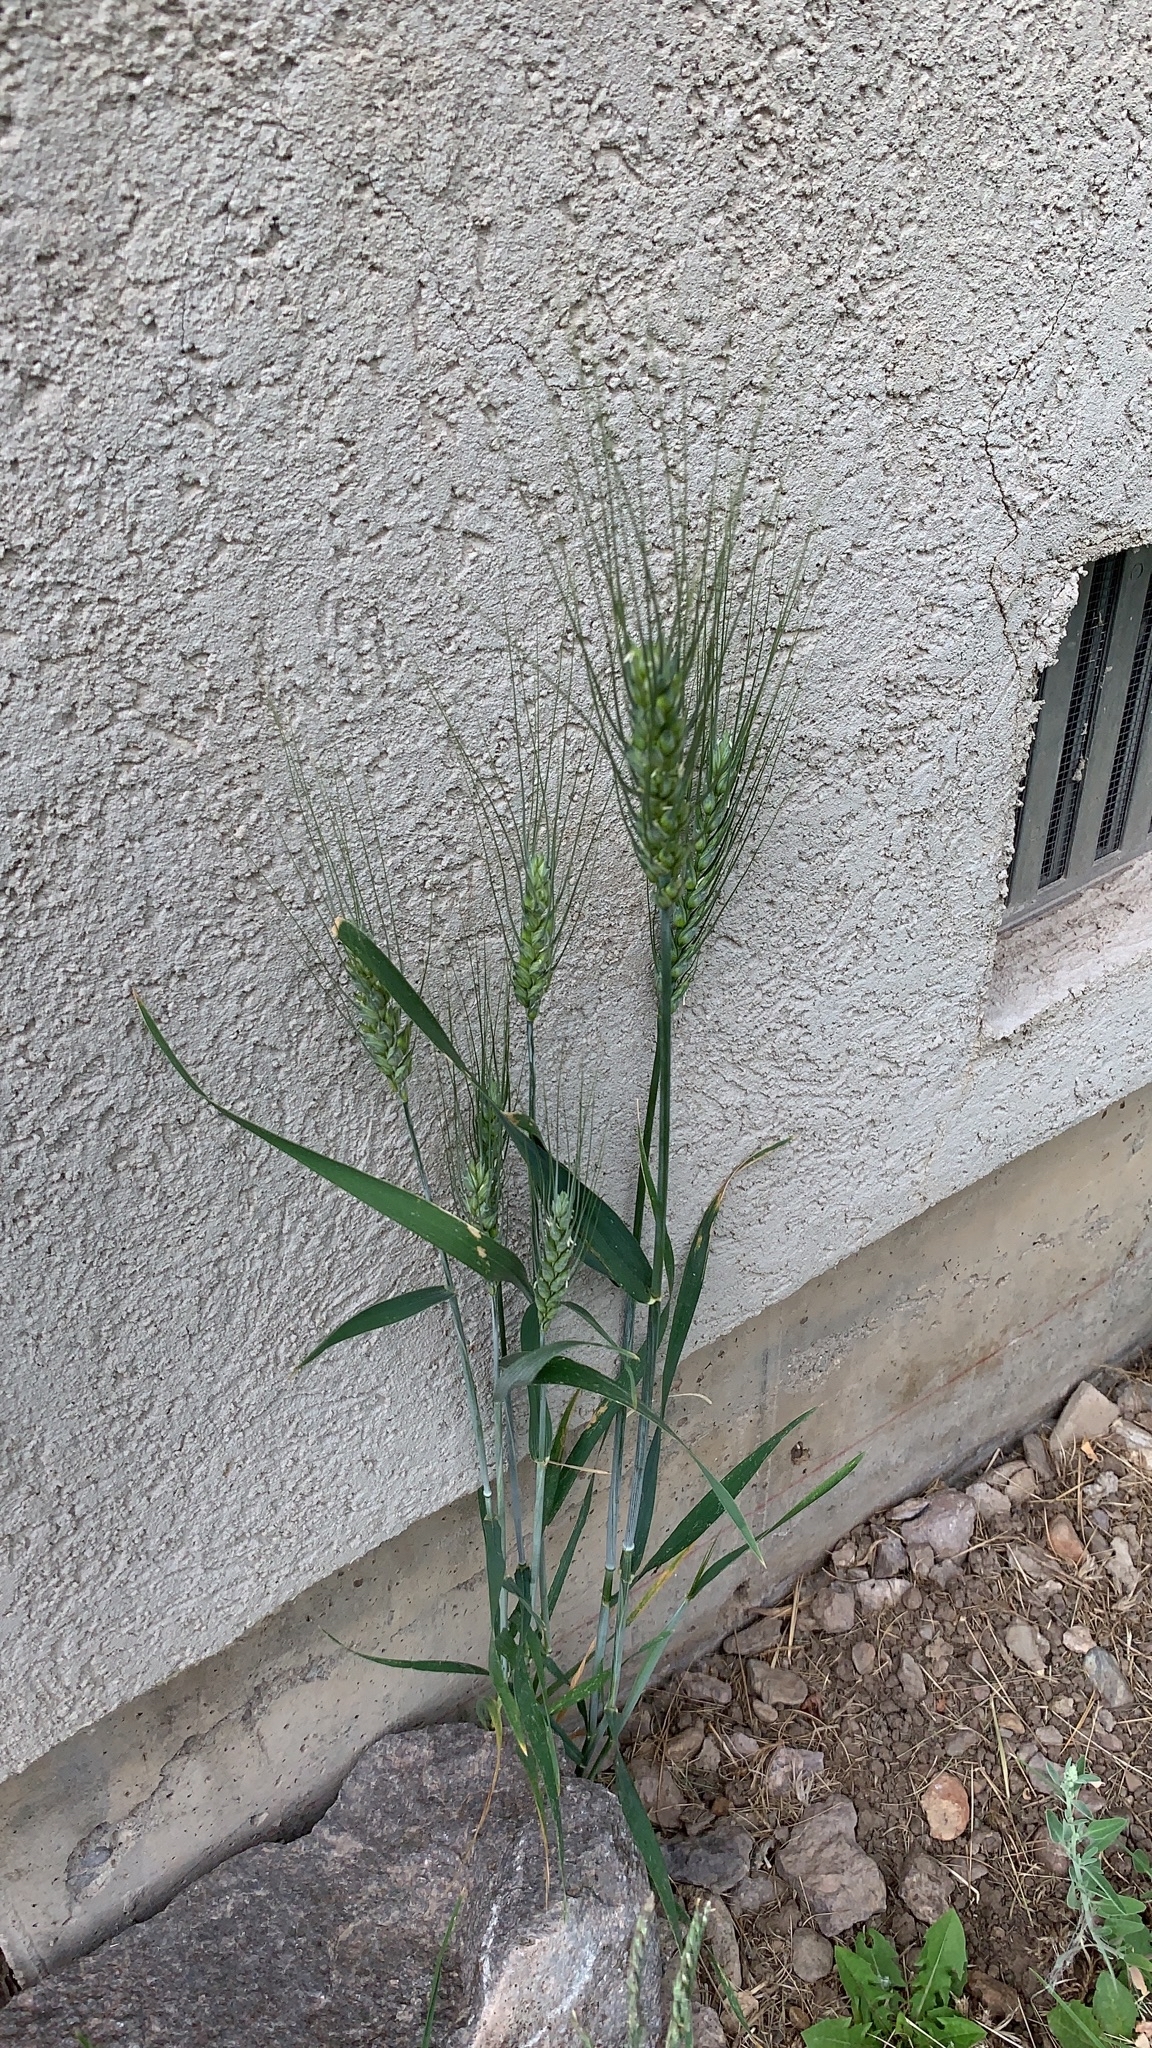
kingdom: Plantae
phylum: Tracheophyta
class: Liliopsida
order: Poales
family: Poaceae
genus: Triticum
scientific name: Triticum aestivum
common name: Common wheat
